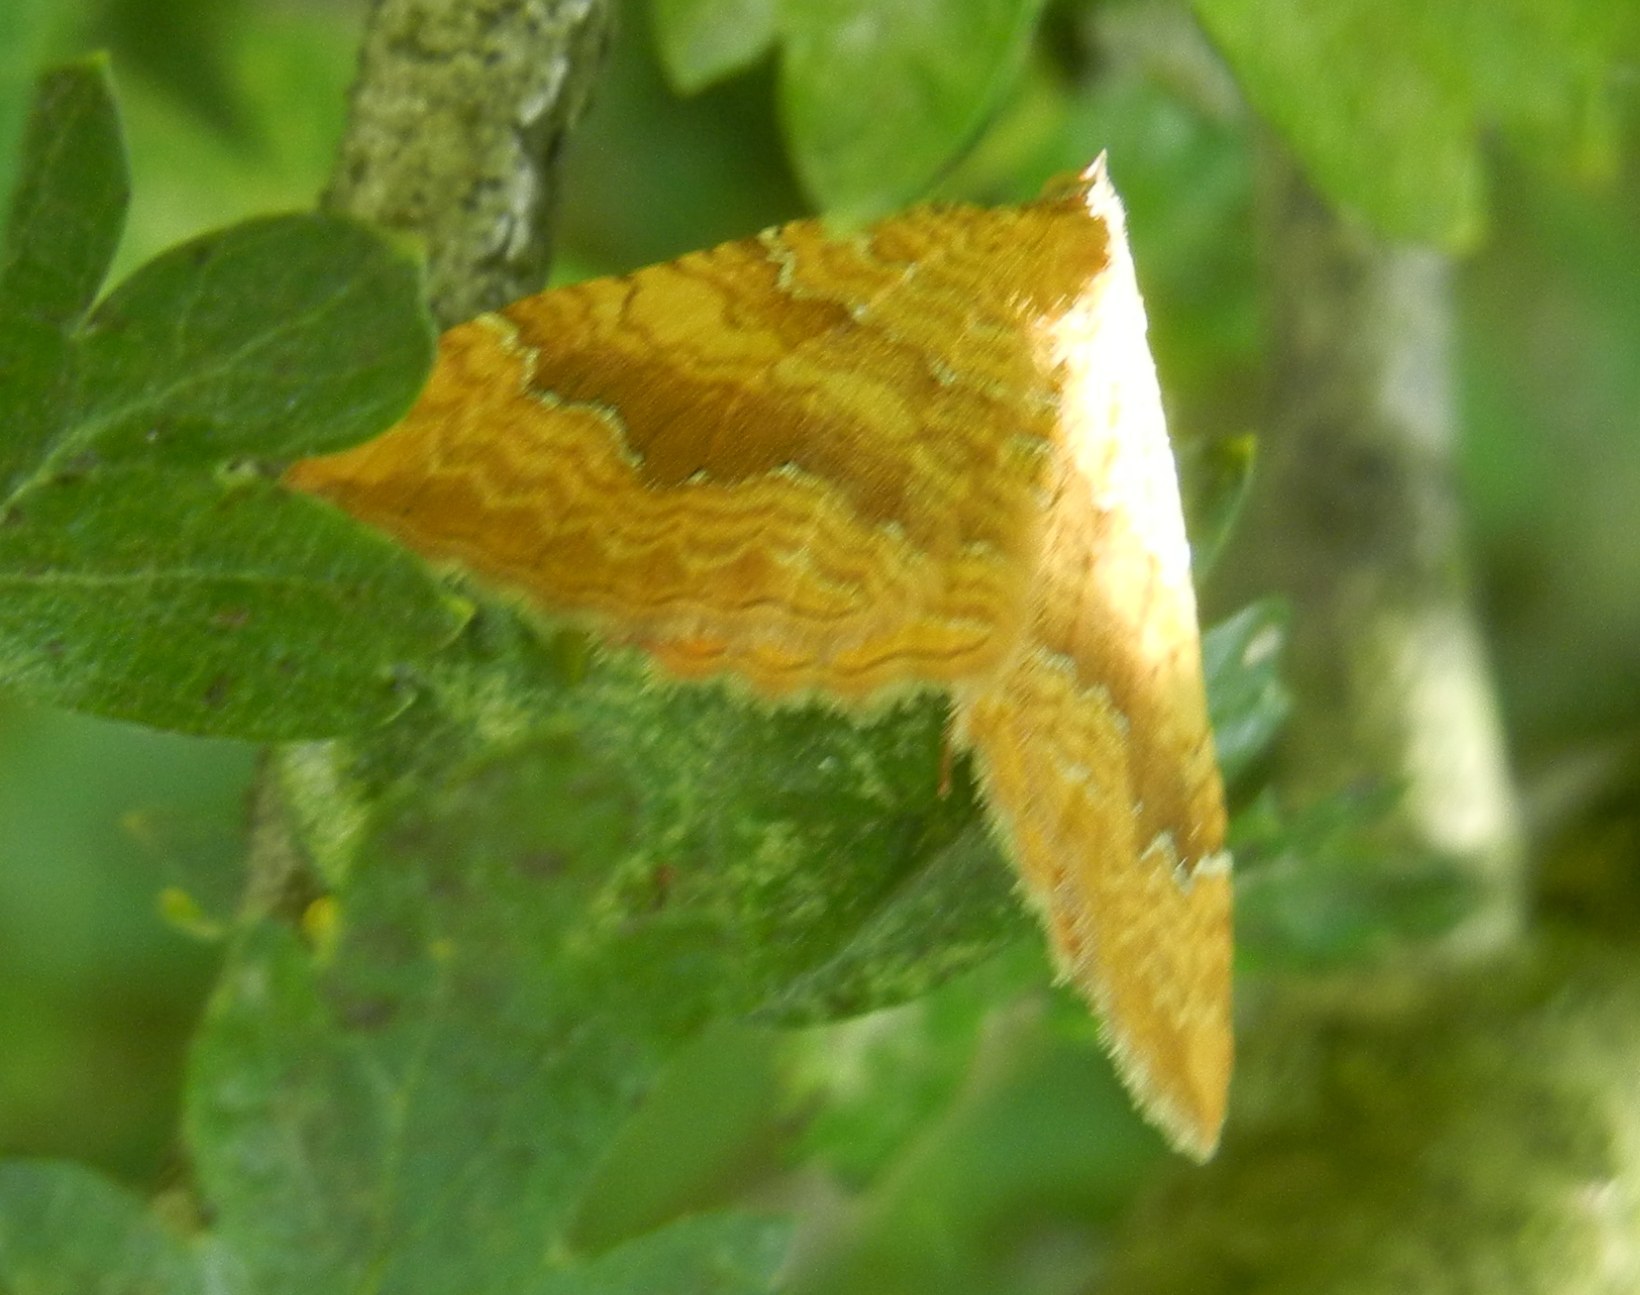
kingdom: Animalia
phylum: Arthropoda
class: Insecta
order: Lepidoptera
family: Geometridae
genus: Camptogramma
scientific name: Camptogramma bilineata
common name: Yellow shell
